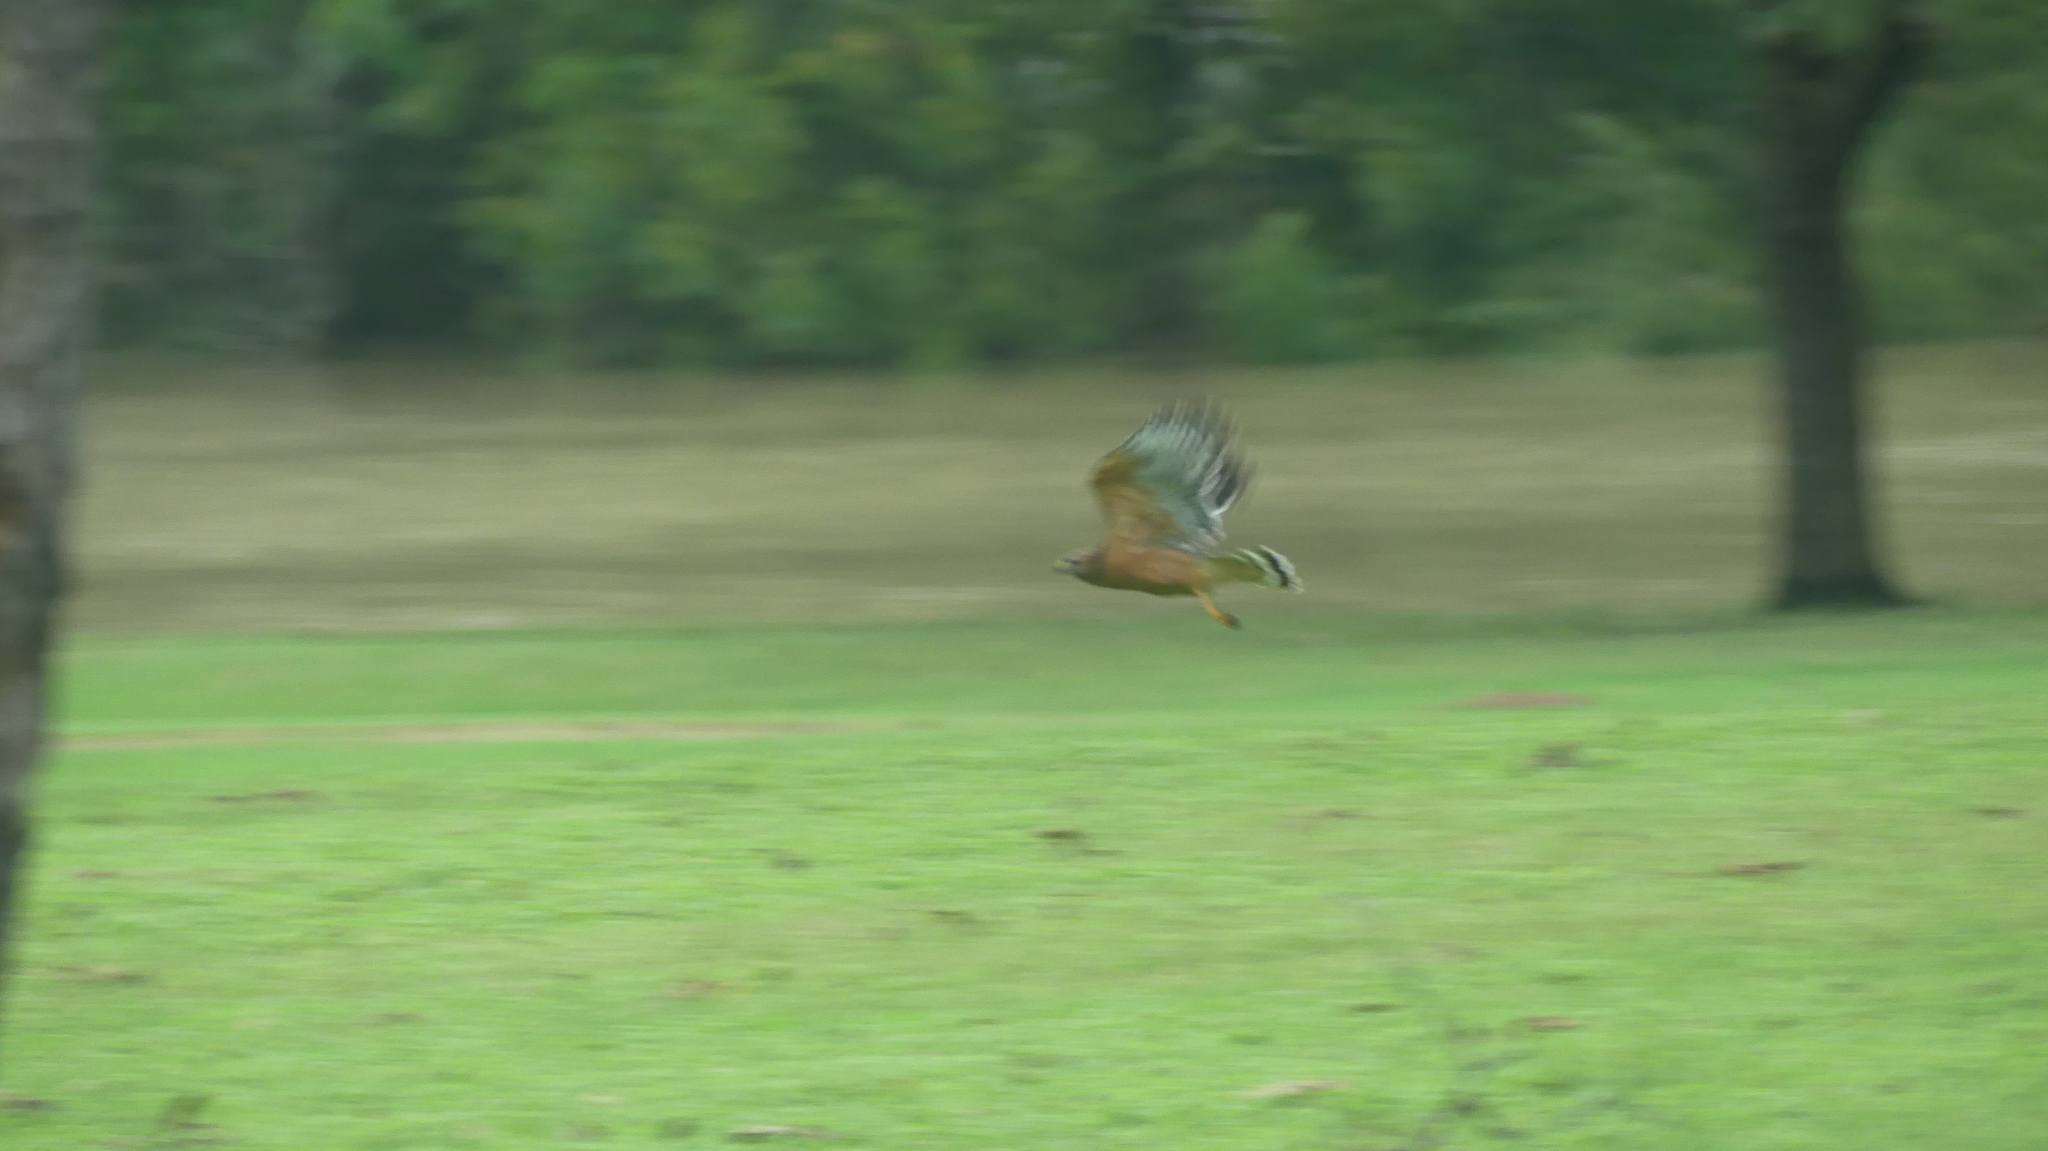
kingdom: Animalia
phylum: Chordata
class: Aves
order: Accipitriformes
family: Accipitridae
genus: Buteo
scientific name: Buteo lineatus
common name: Red-shouldered hawk
